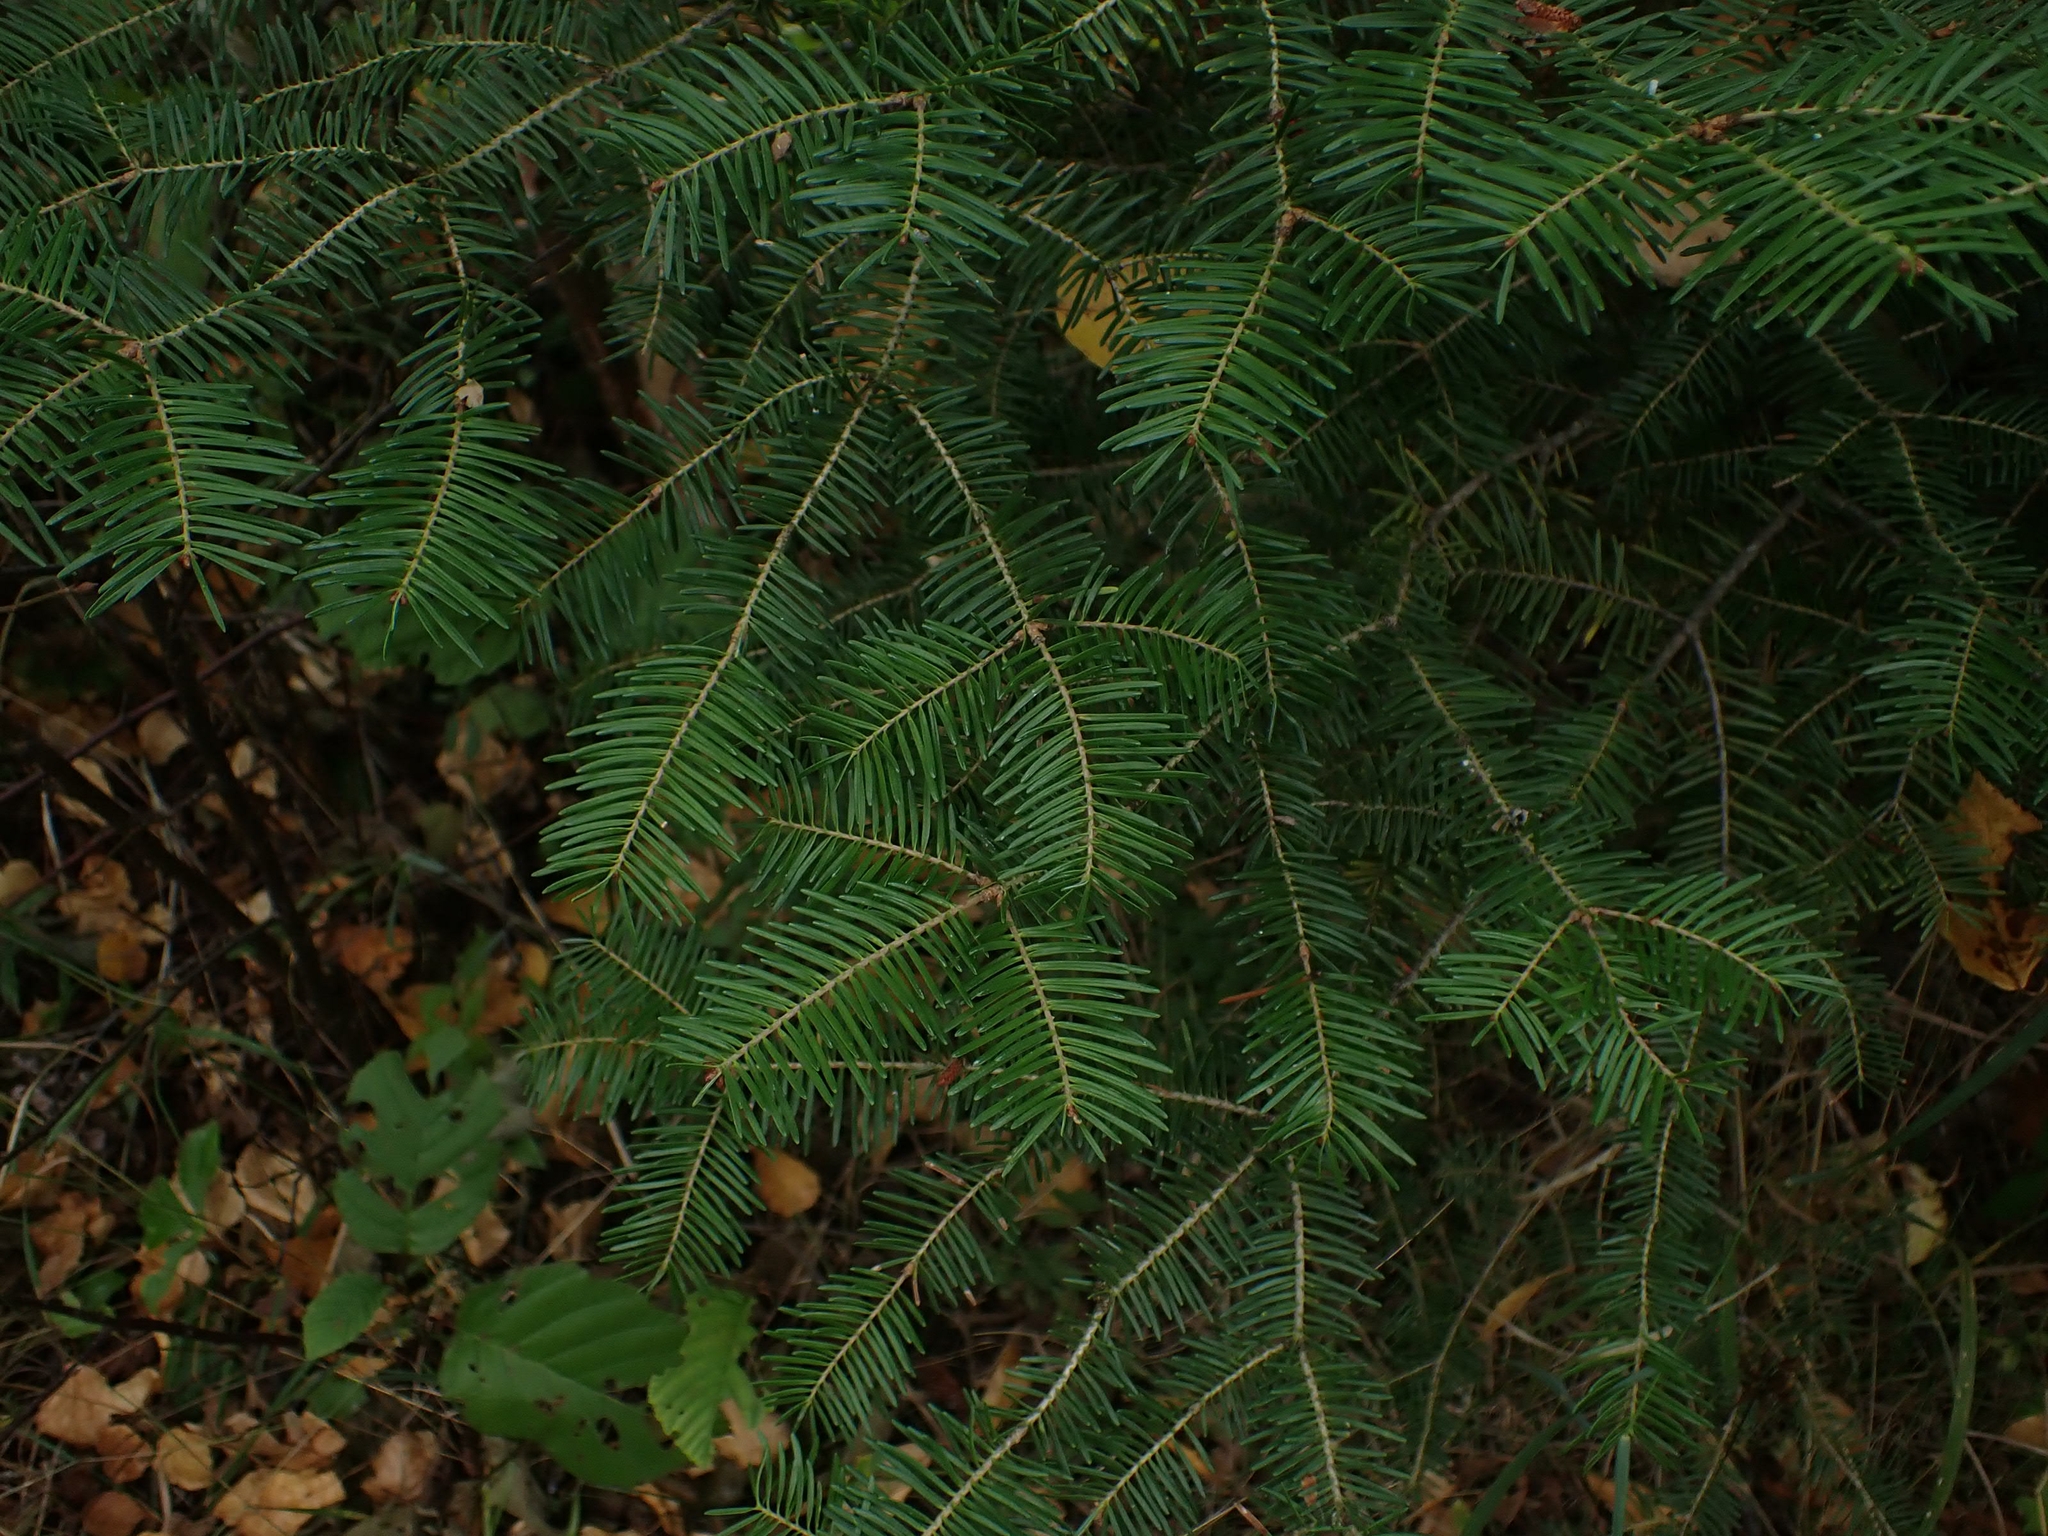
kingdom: Plantae
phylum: Tracheophyta
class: Pinopsida
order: Pinales
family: Pinaceae
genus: Abies
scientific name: Abies balsamea
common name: Balsam fir
